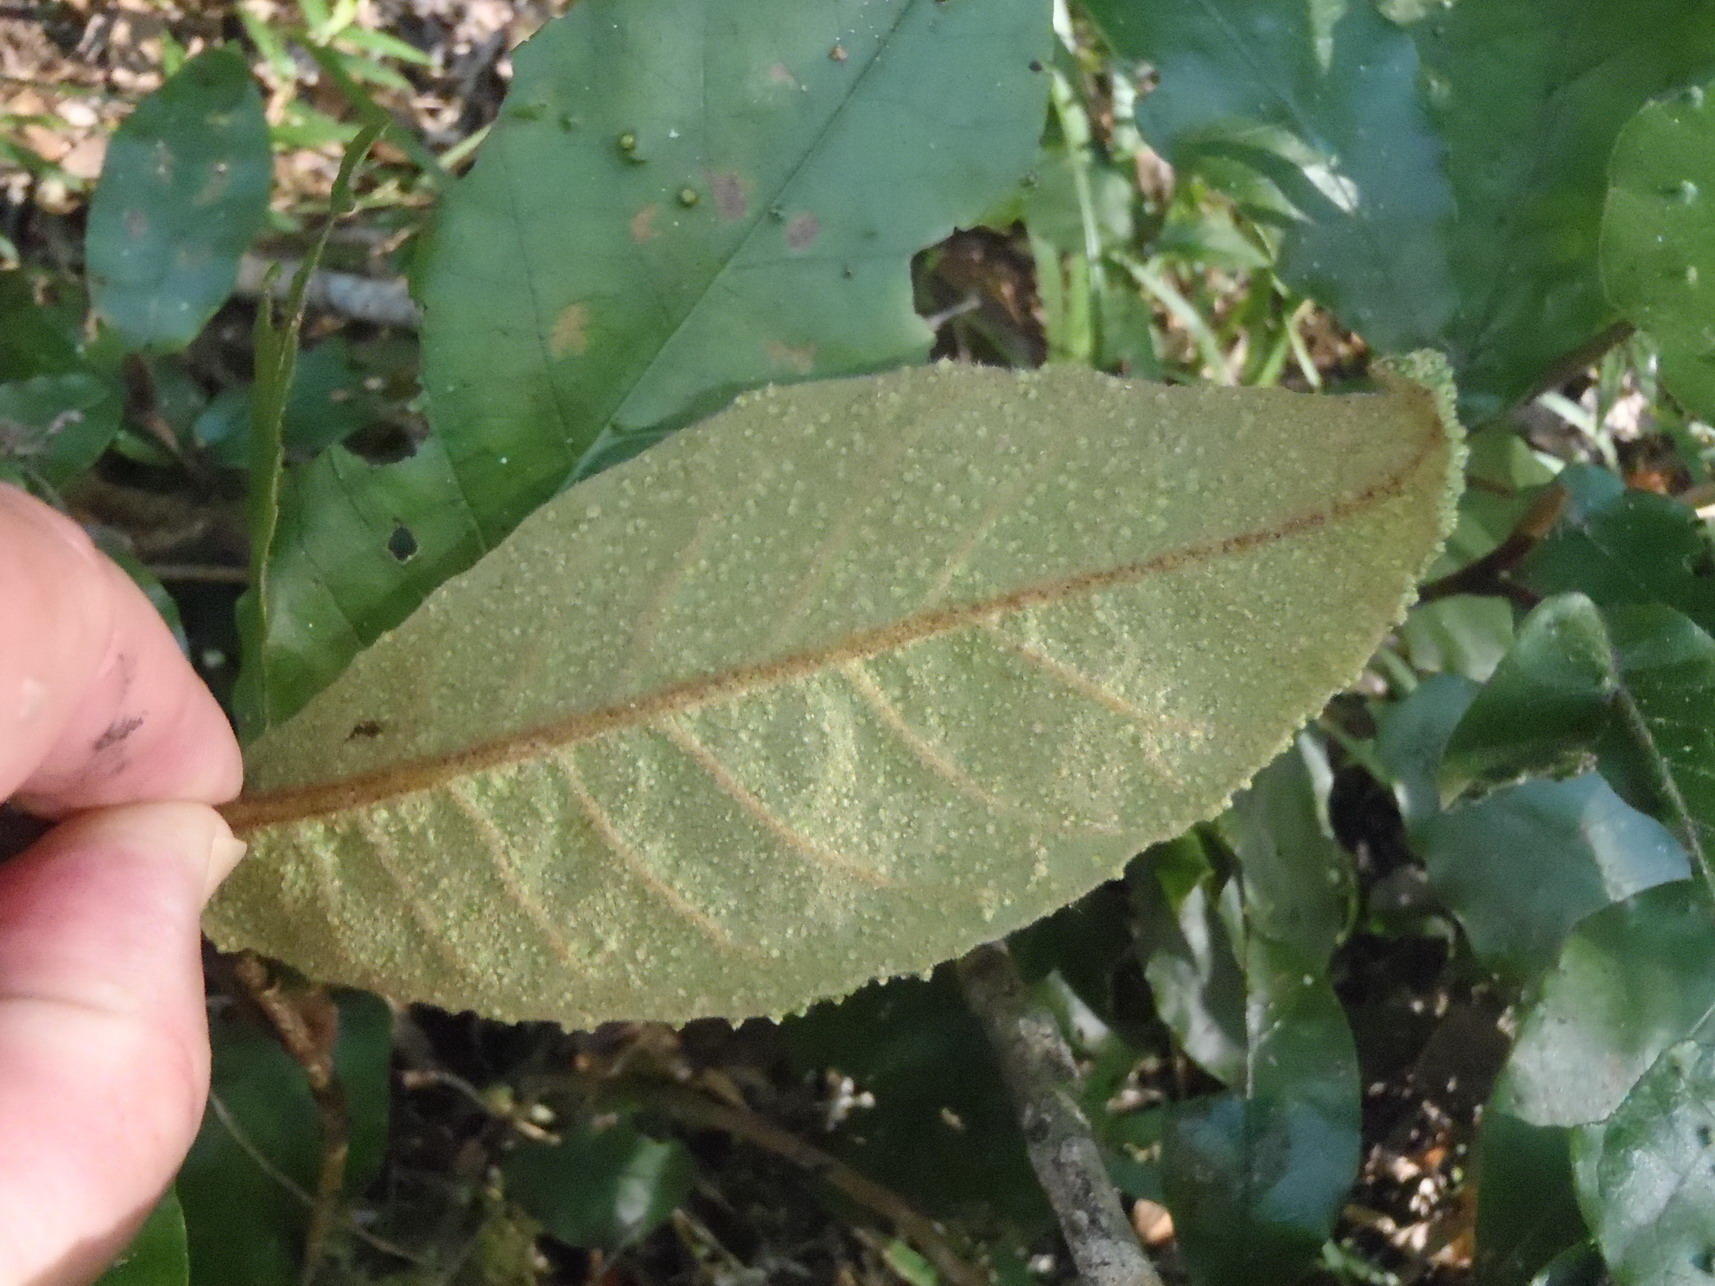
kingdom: Animalia
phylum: Arthropoda
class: Arachnida
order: Trombidiformes
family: Phytoptidae
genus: Phytoptus
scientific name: Phytoptus
